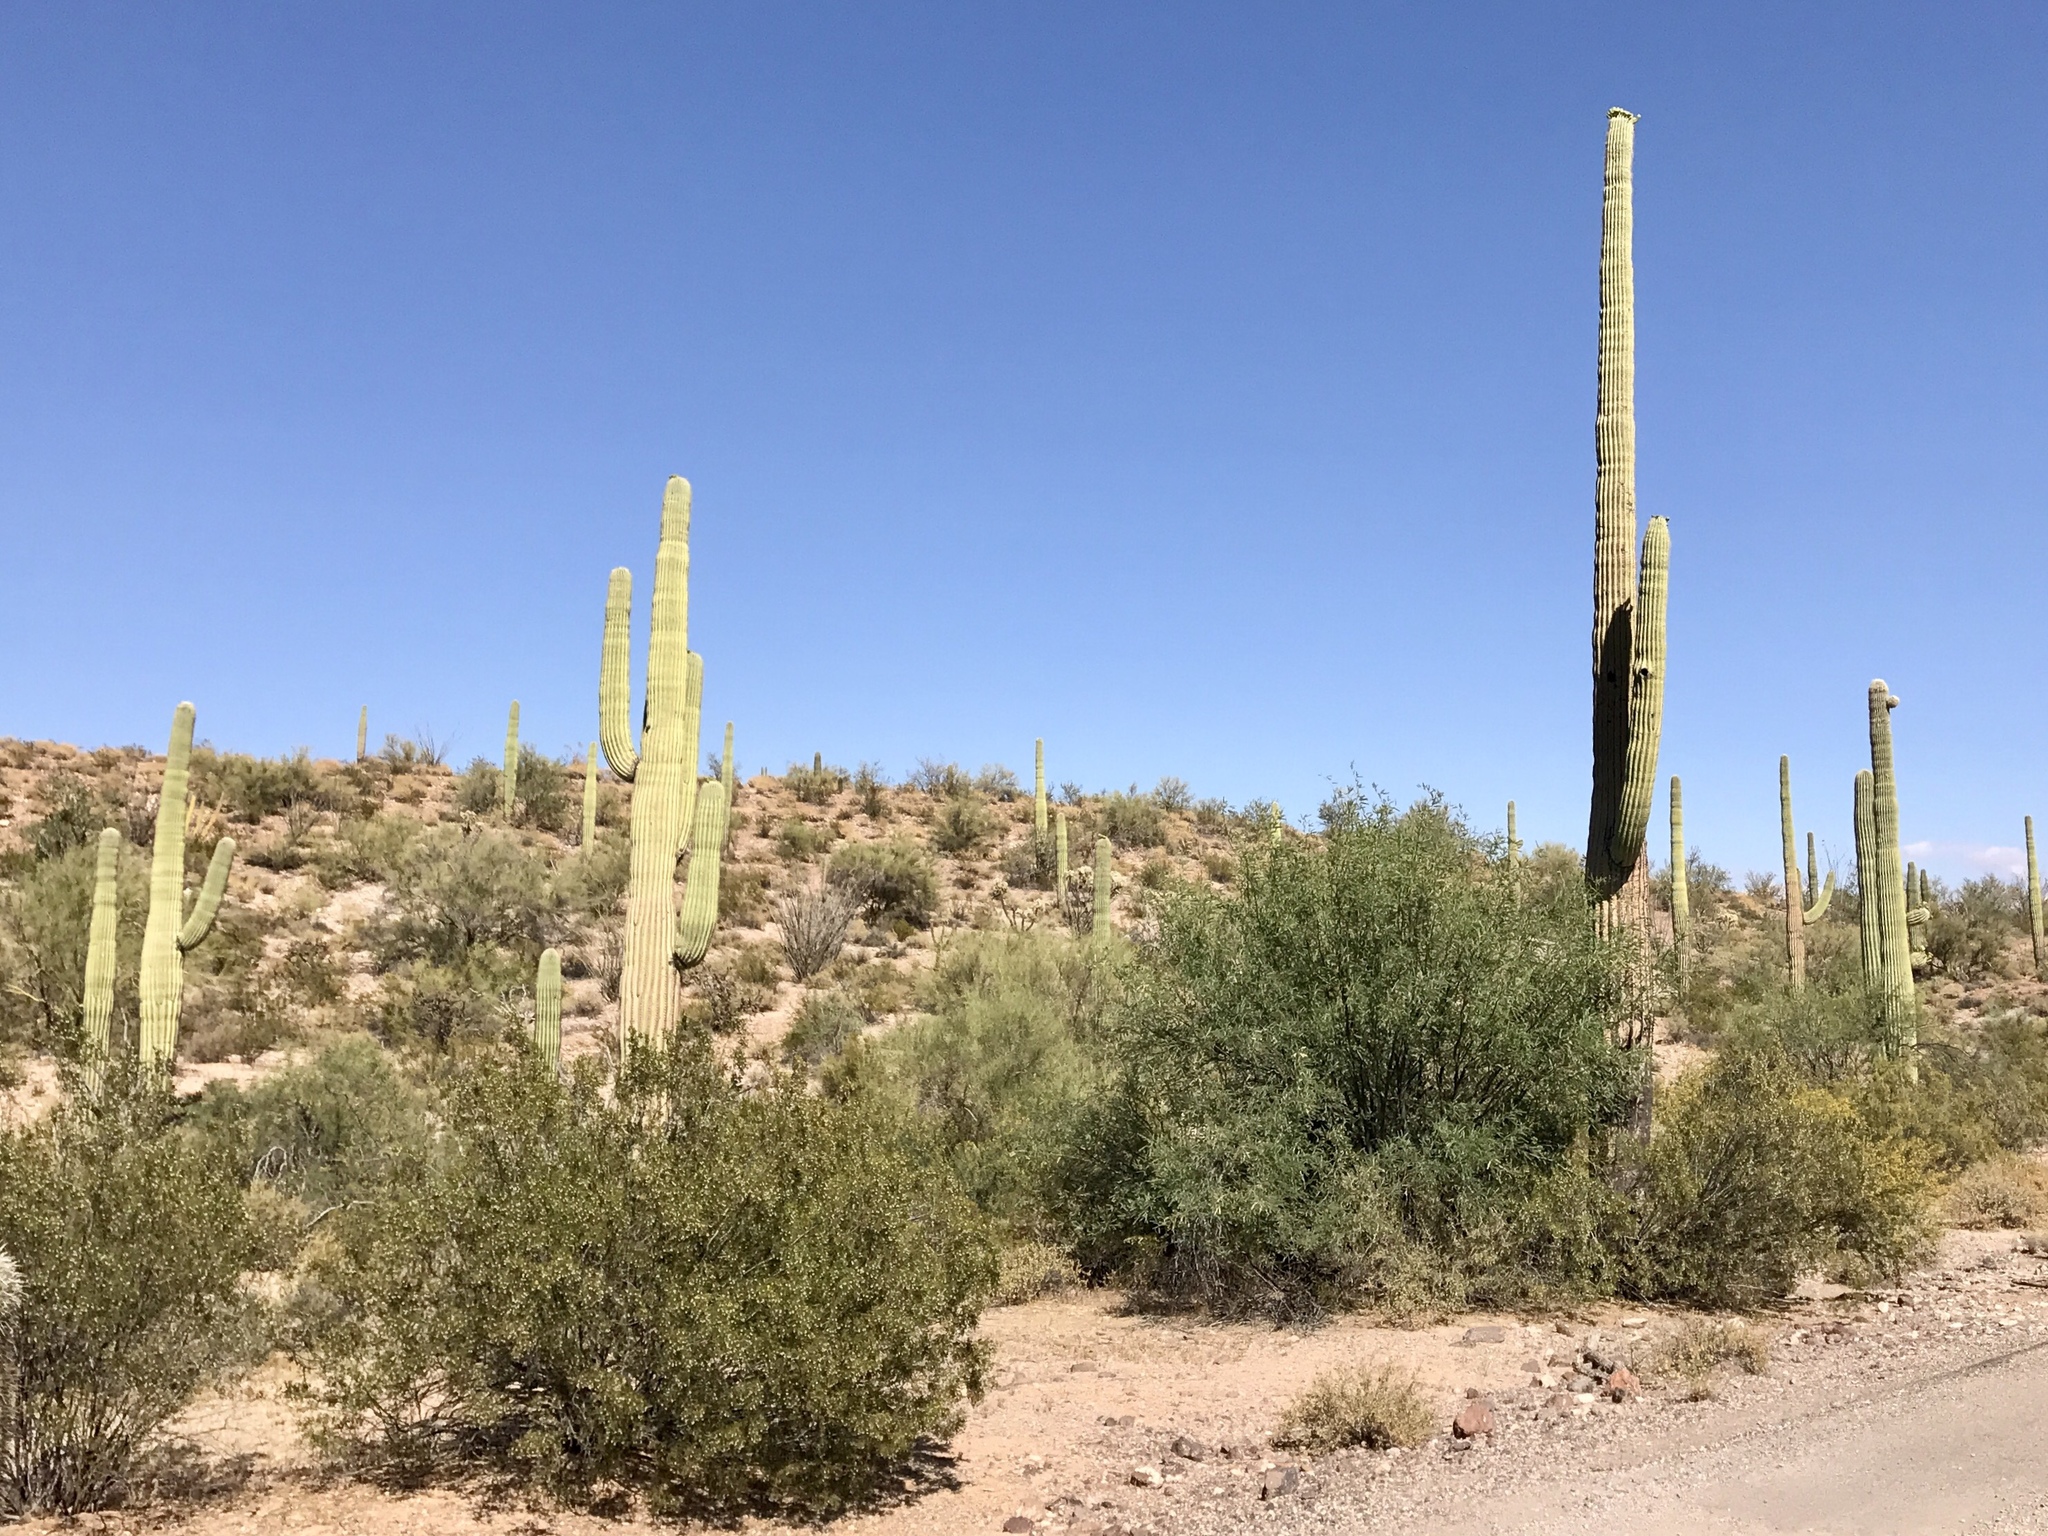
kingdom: Plantae
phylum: Tracheophyta
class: Magnoliopsida
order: Caryophyllales
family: Cactaceae
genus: Carnegiea
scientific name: Carnegiea gigantea
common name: Saguaro
